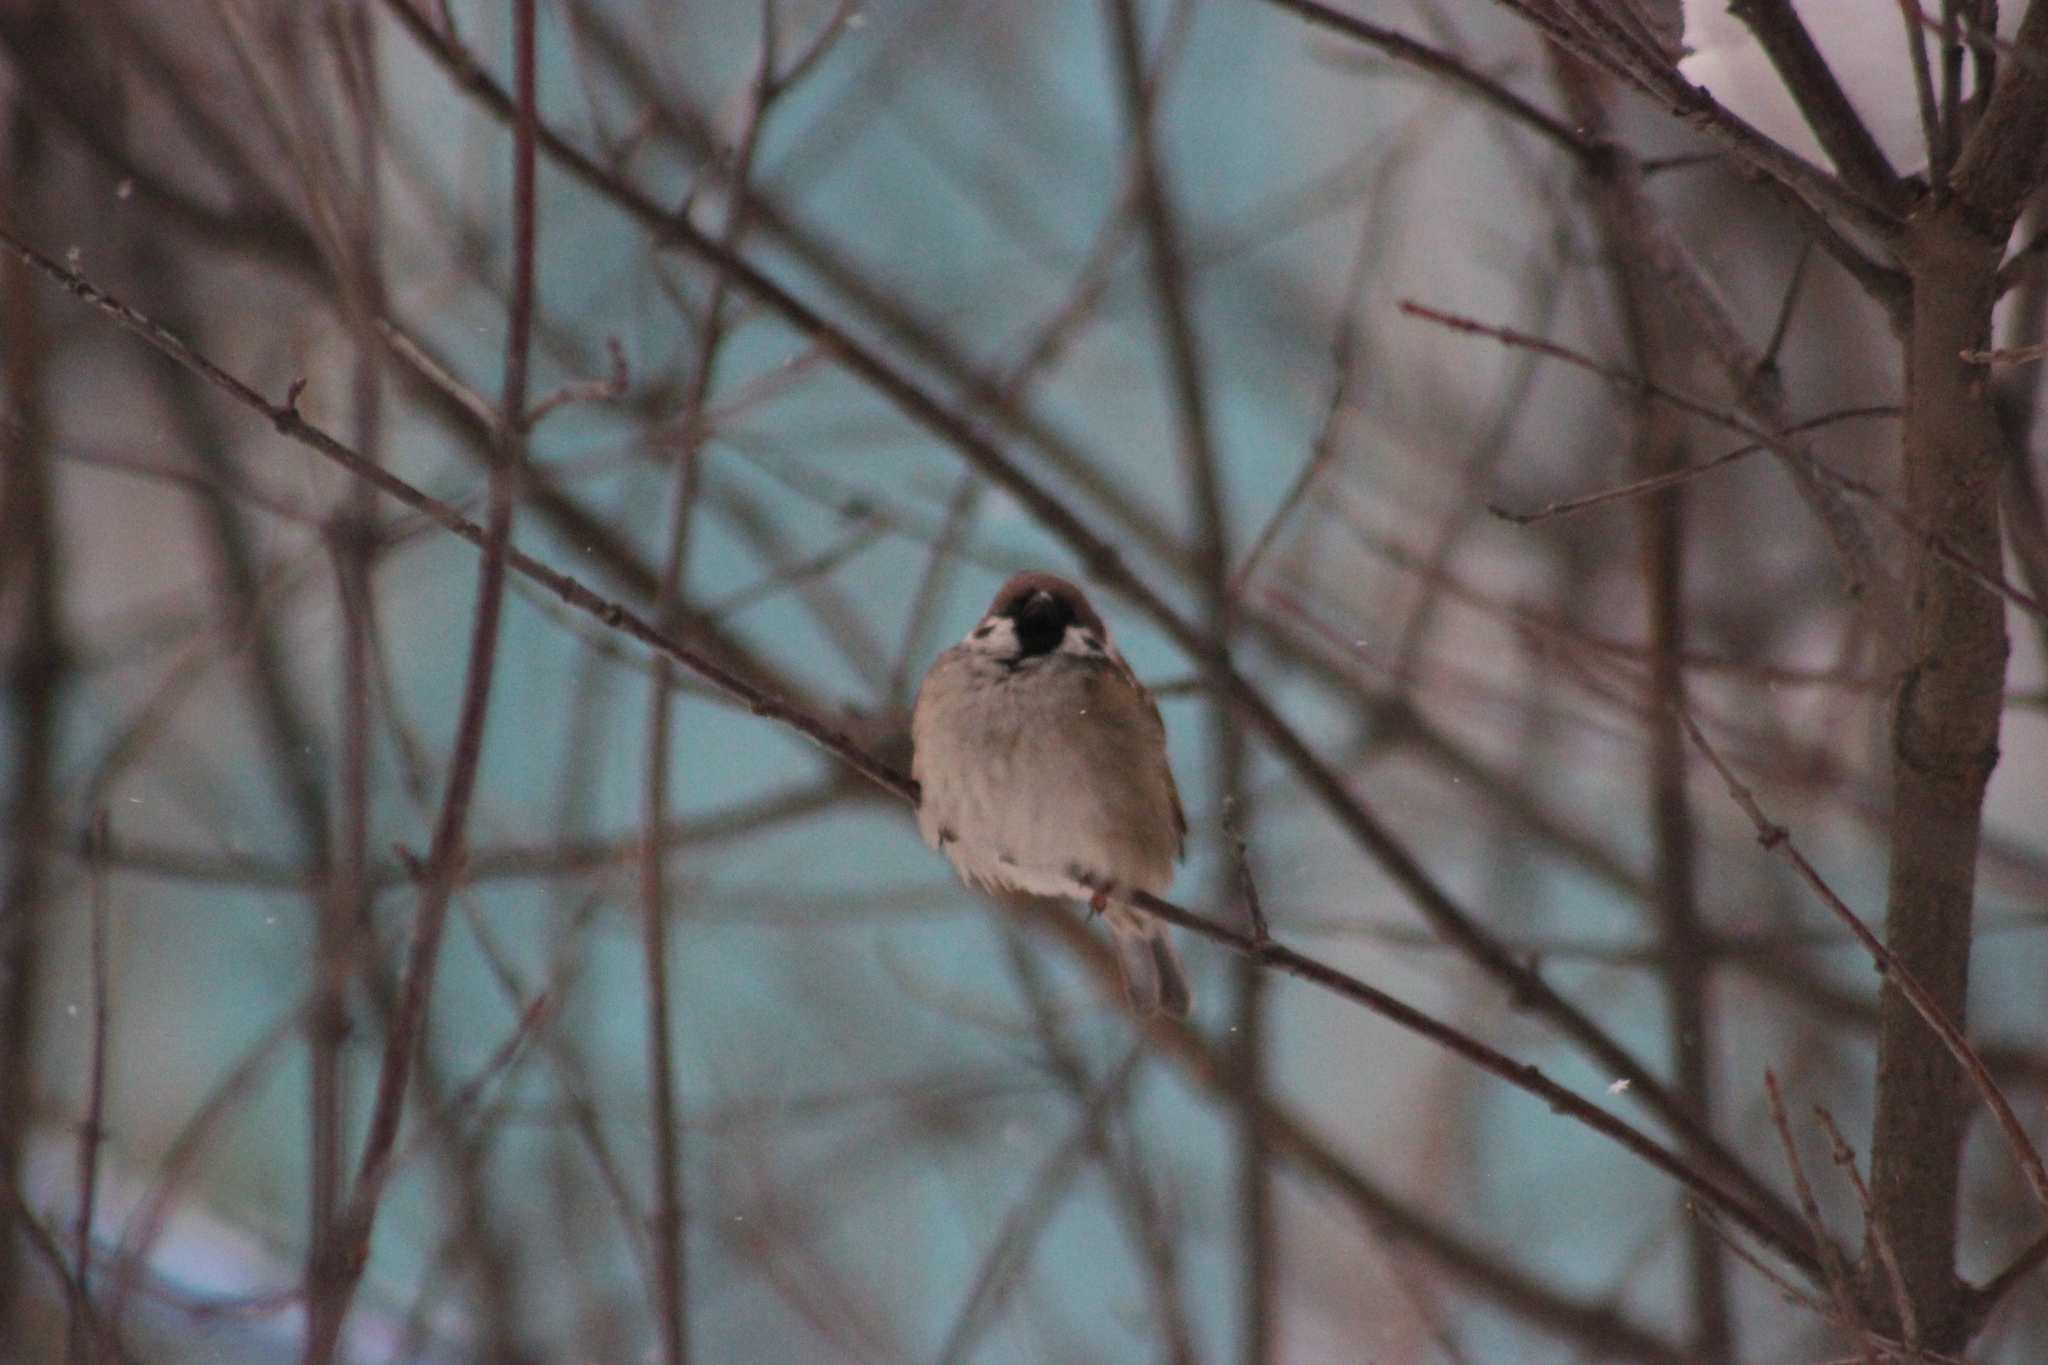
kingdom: Animalia
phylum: Chordata
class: Aves
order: Passeriformes
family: Passeridae
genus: Passer
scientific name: Passer montanus
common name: Eurasian tree sparrow
